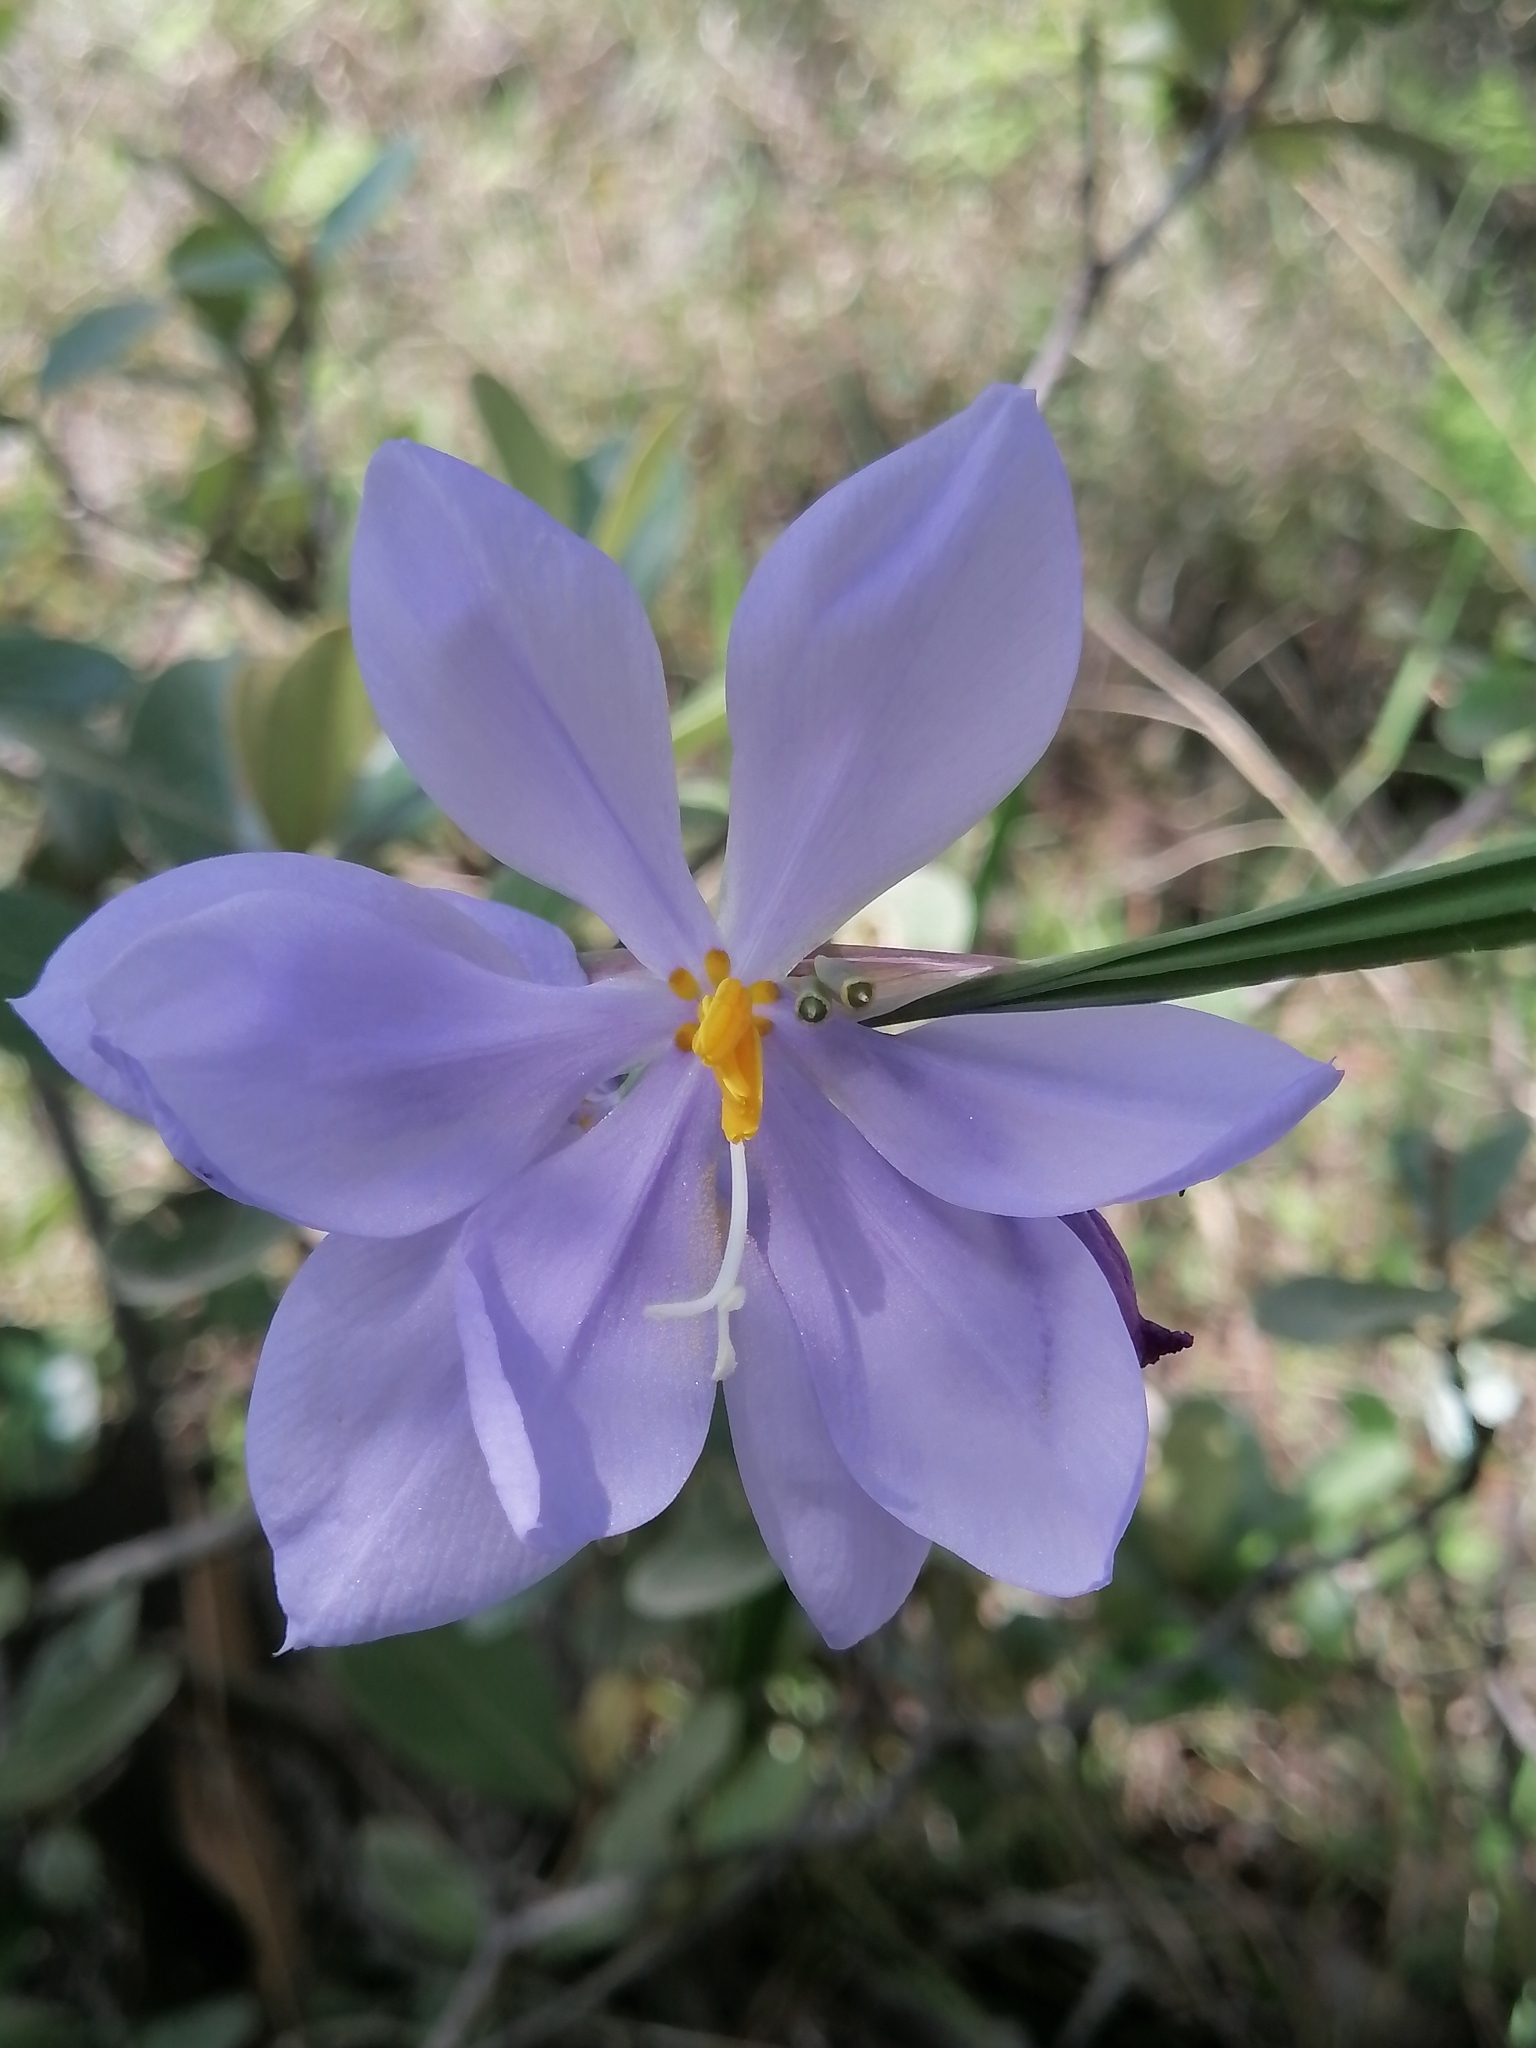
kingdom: Plantae
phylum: Tracheophyta
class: Liliopsida
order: Asparagales
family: Iridaceae
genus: Tigridia
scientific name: Tigridia longispatha
